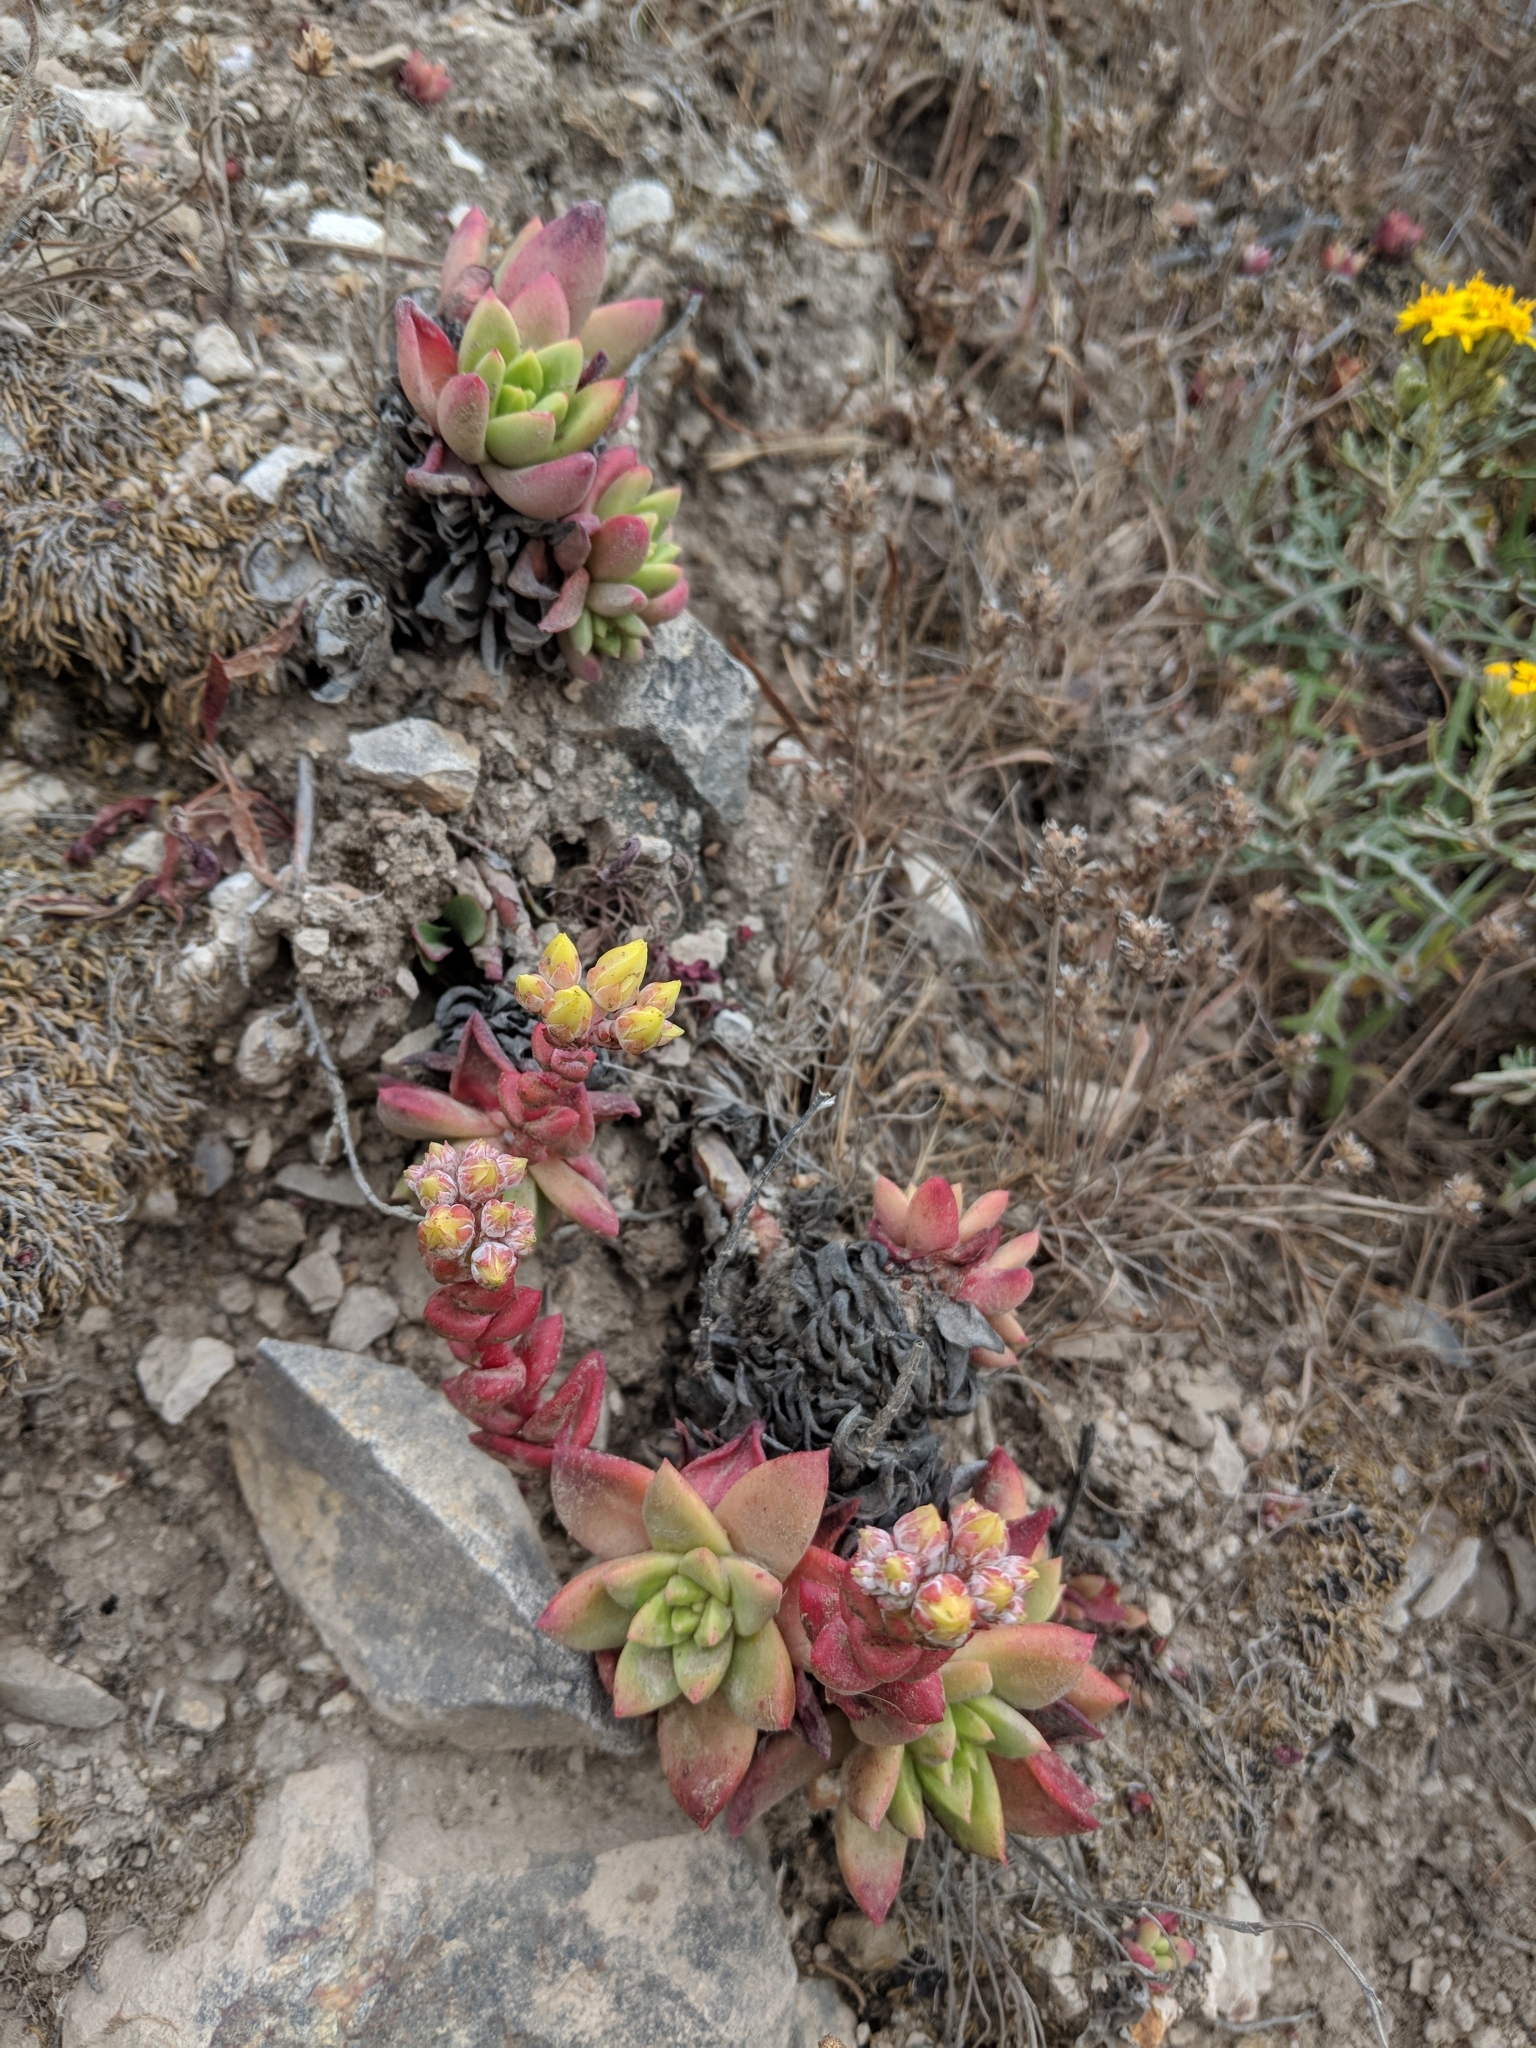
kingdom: Plantae
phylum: Tracheophyta
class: Magnoliopsida
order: Saxifragales
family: Crassulaceae
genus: Dudleya
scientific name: Dudleya farinosa
